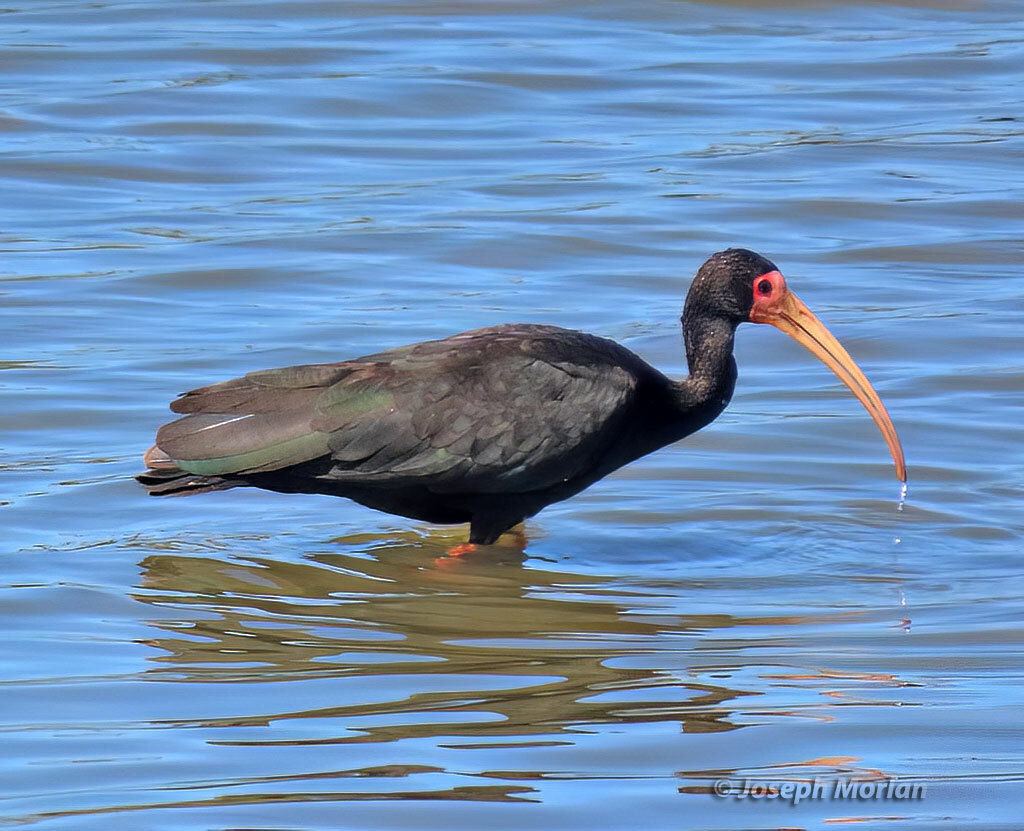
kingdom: Animalia
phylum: Chordata
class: Aves
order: Pelecaniformes
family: Threskiornithidae
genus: Phimosus
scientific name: Phimosus infuscatus
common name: Bare-faced ibis
